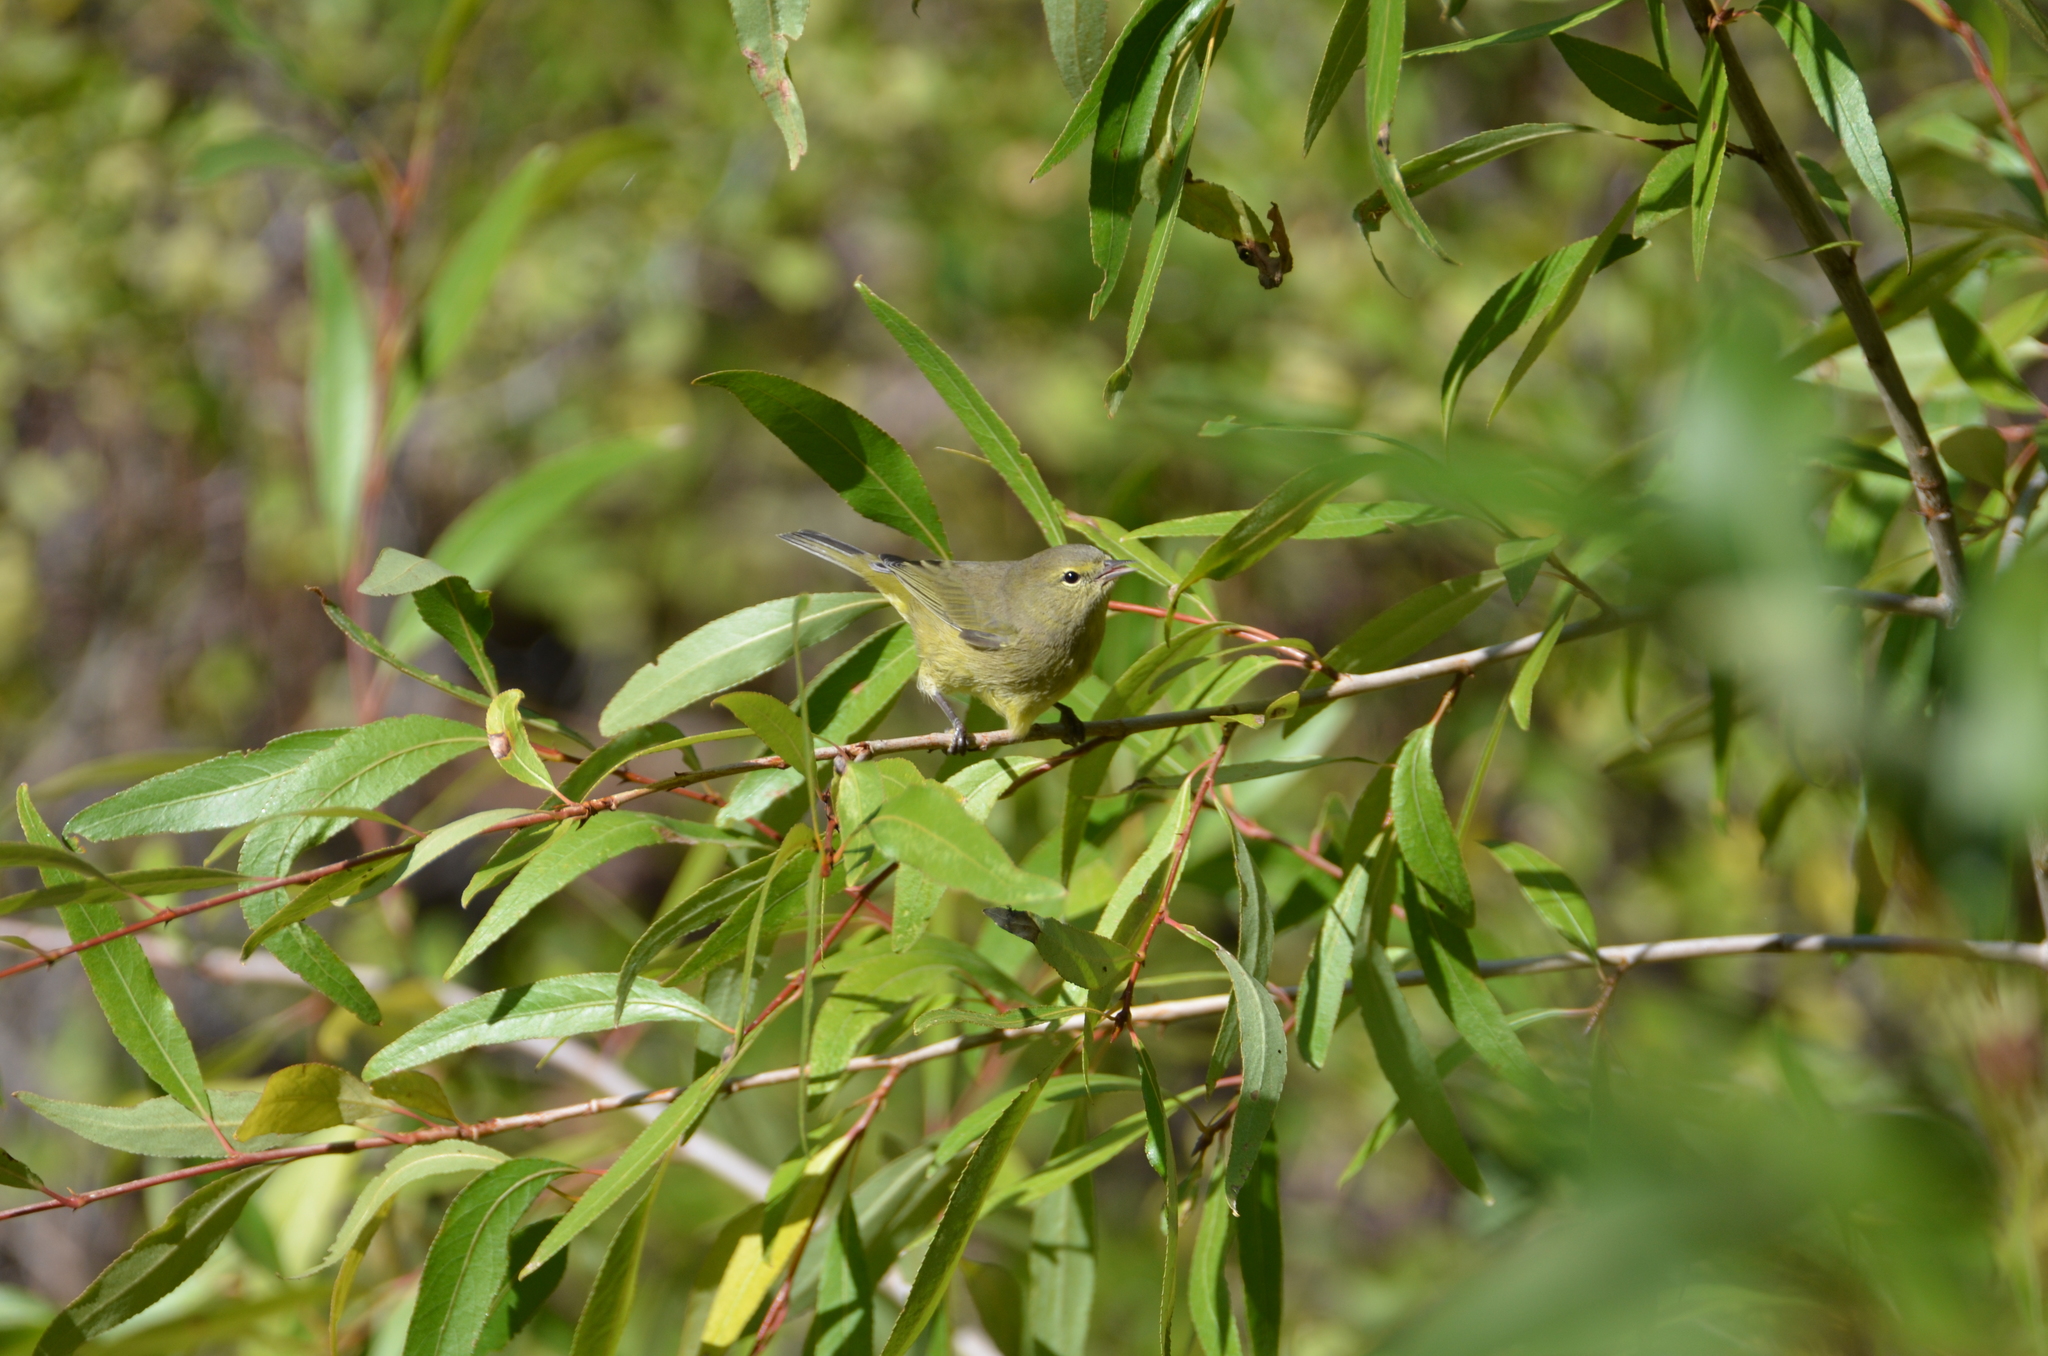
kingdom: Animalia
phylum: Chordata
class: Aves
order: Passeriformes
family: Parulidae
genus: Leiothlypis
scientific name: Leiothlypis celata
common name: Orange-crowned warbler
